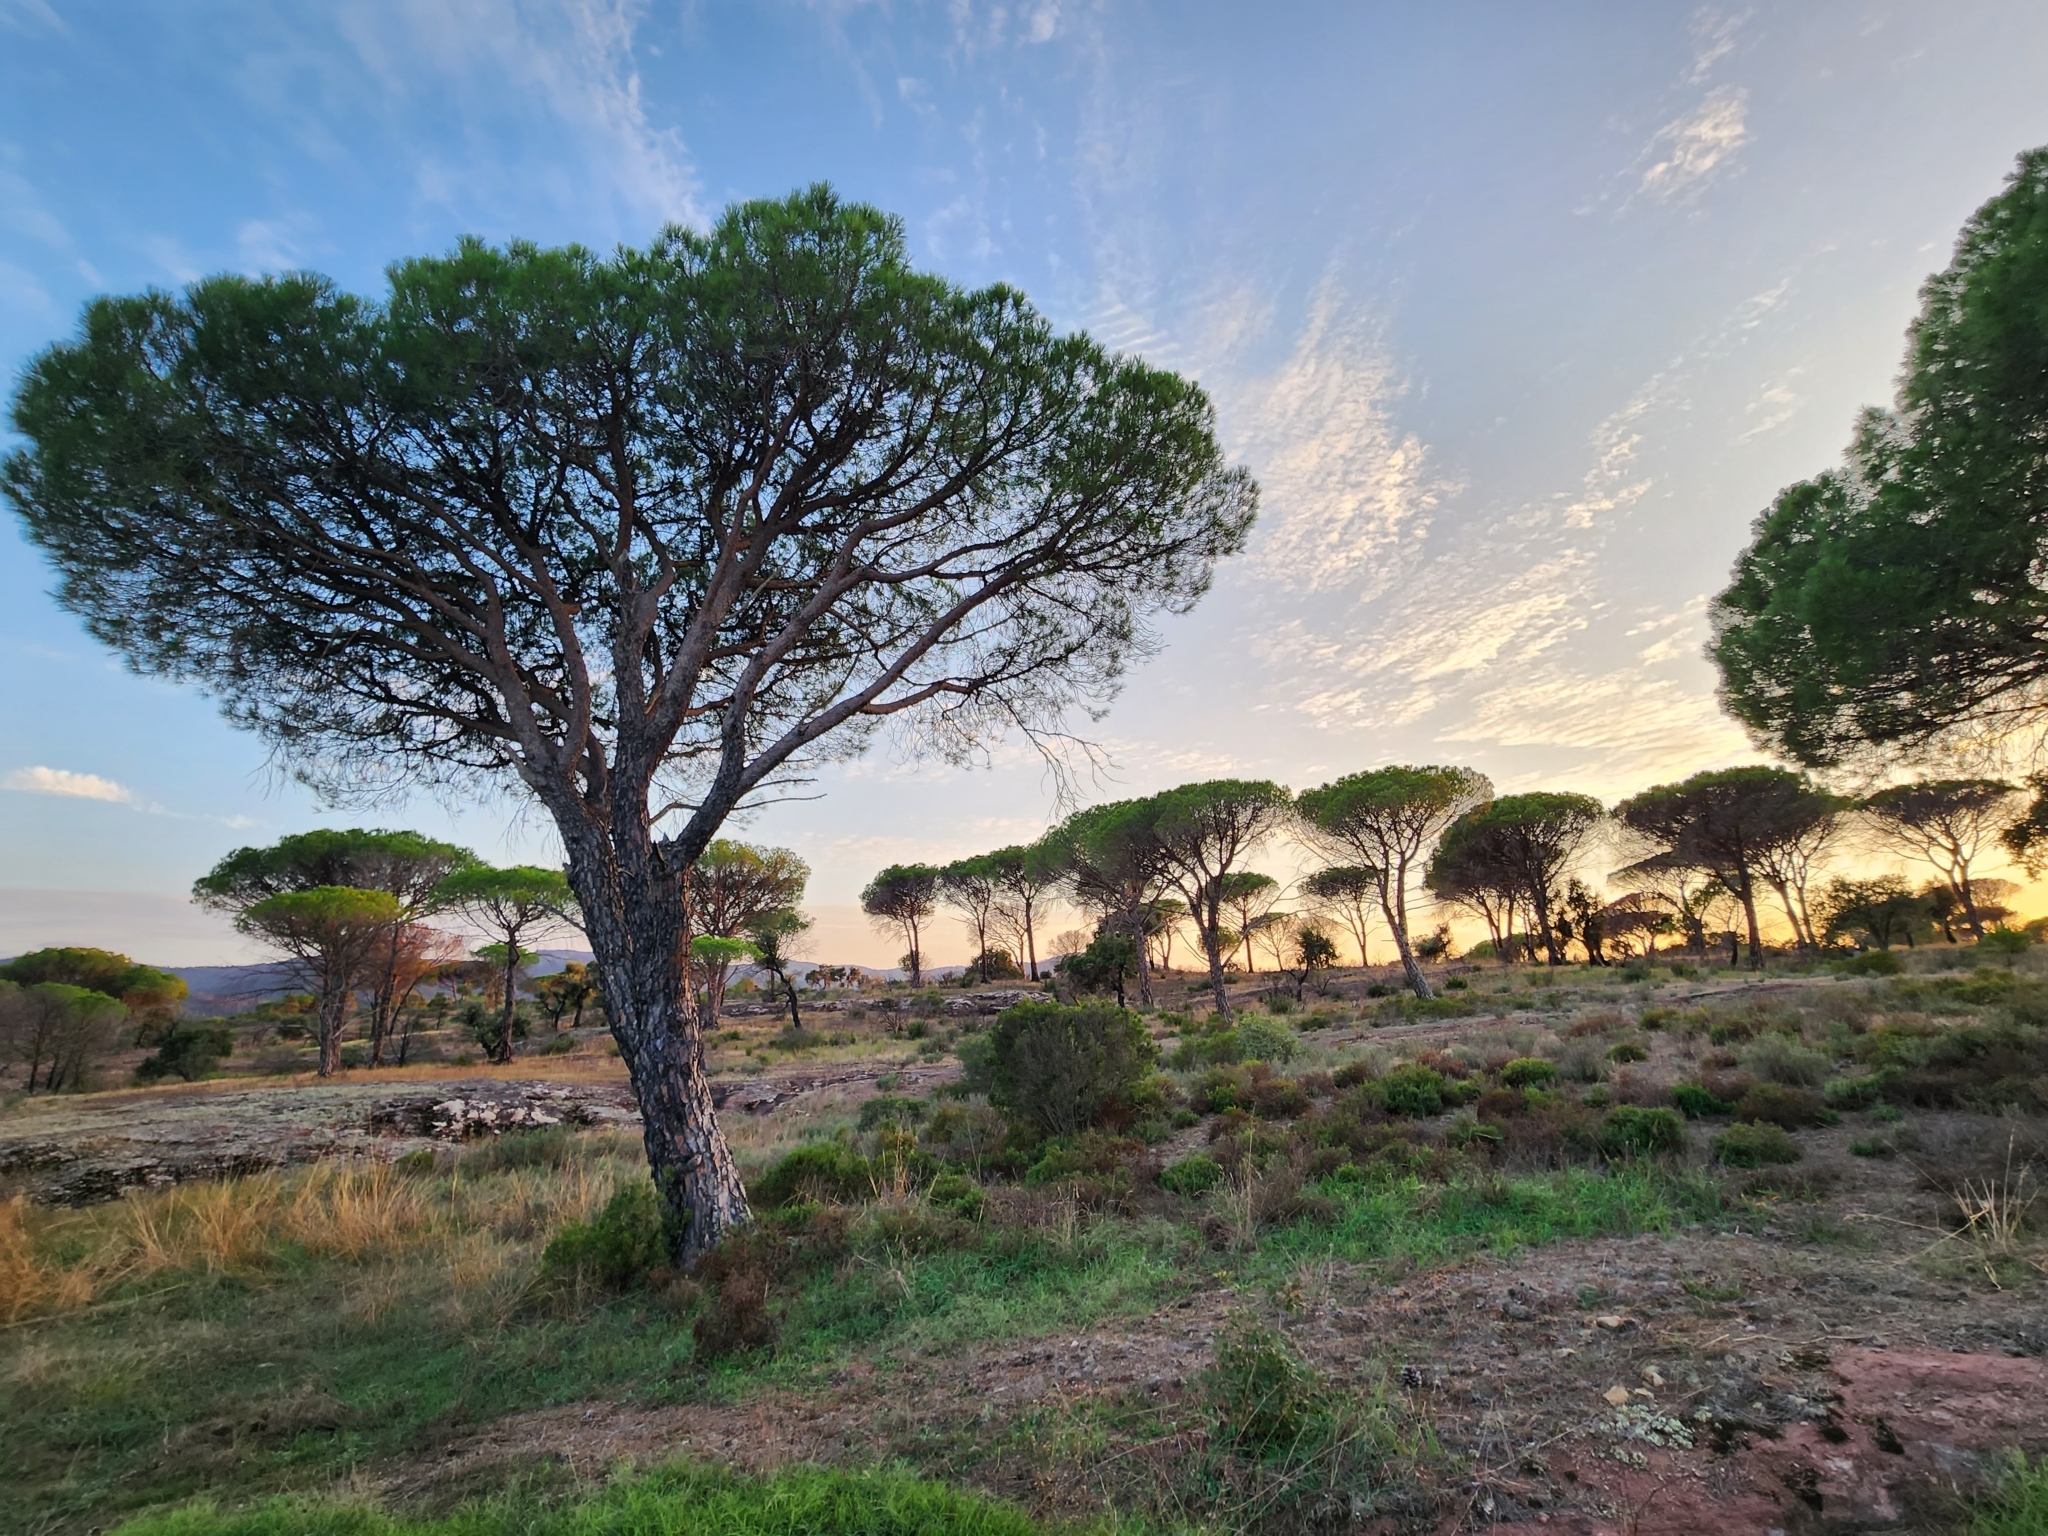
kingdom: Plantae
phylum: Tracheophyta
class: Pinopsida
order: Pinales
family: Pinaceae
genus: Pinus
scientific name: Pinus pinea
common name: Italian stone pine
